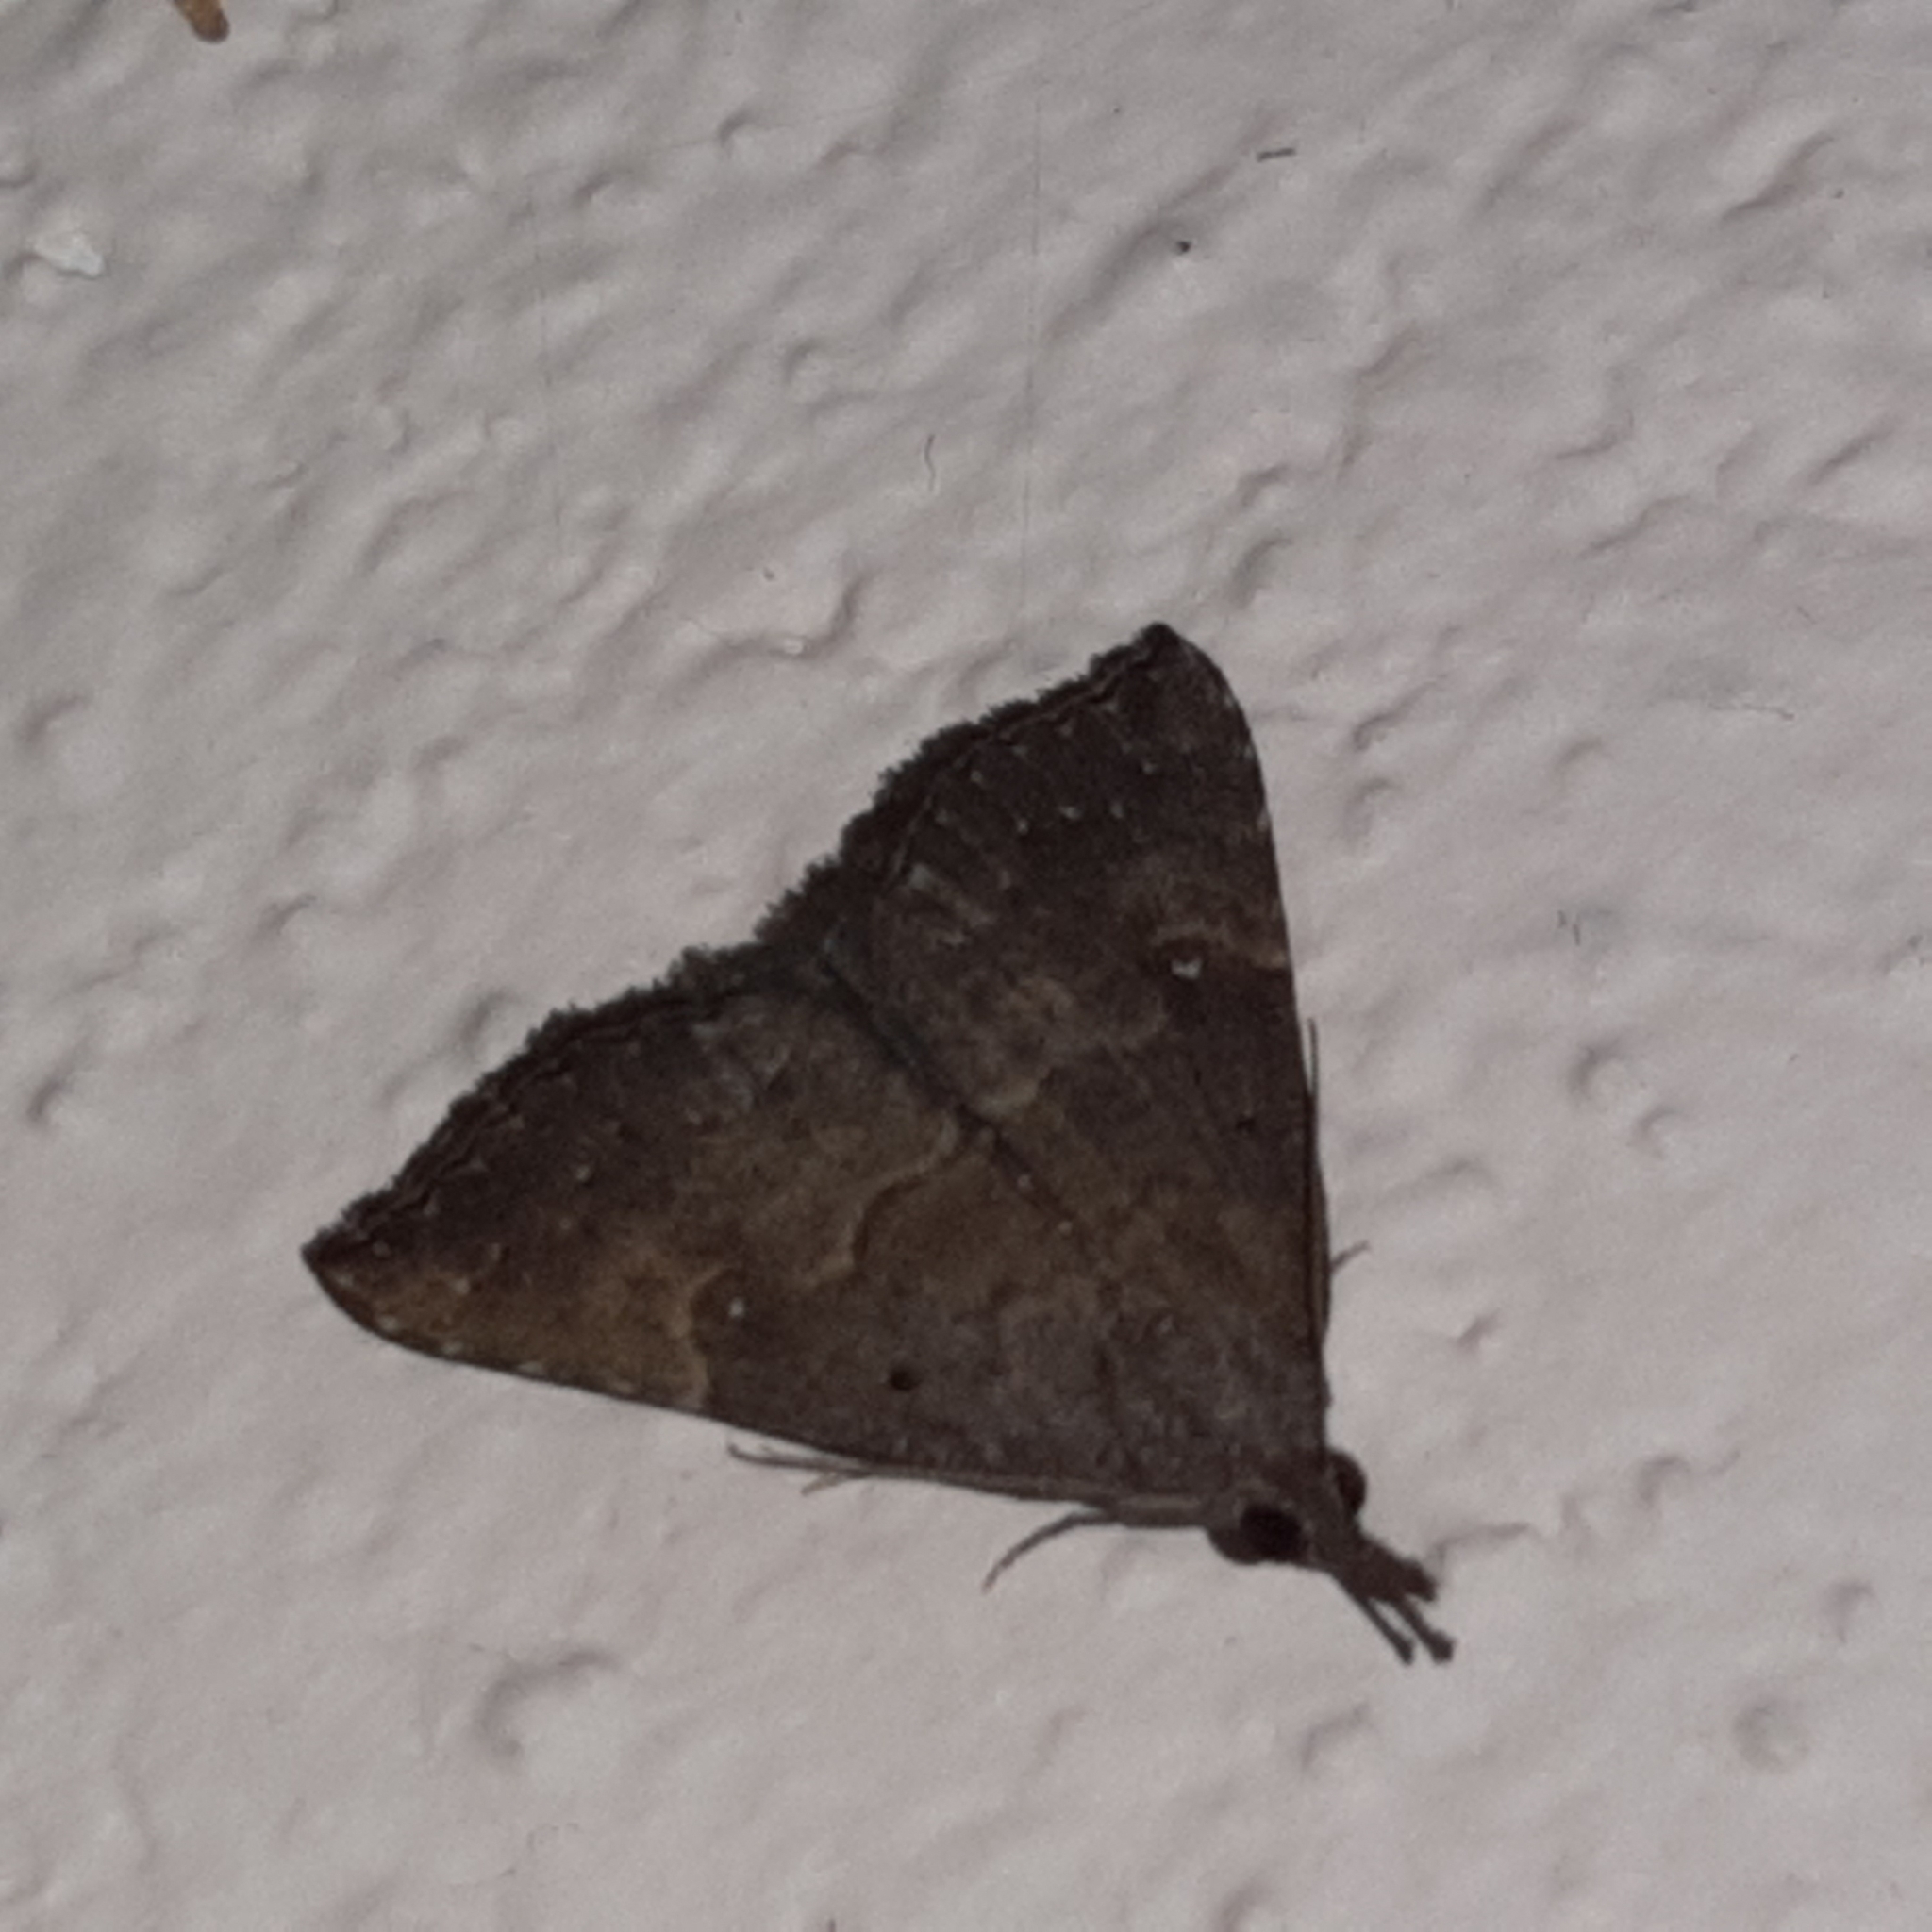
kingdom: Animalia
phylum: Arthropoda
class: Insecta
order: Lepidoptera
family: Erebidae
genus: Hypena
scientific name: Hypena peruvialis
